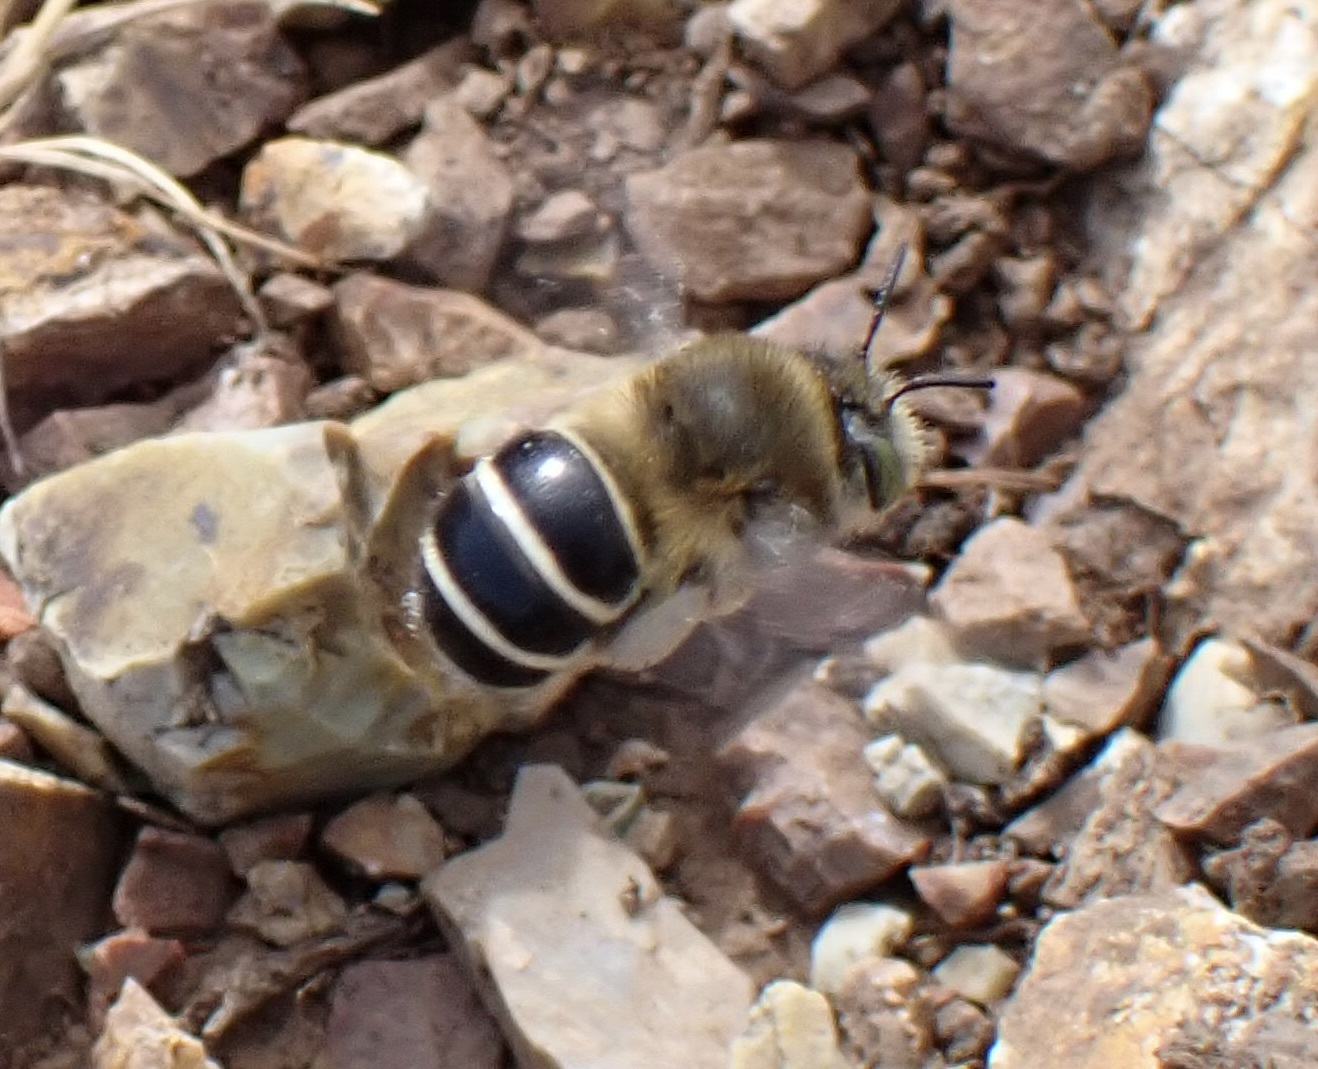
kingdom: Animalia
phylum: Arthropoda
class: Insecta
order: Hymenoptera
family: Apidae
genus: Anthophora
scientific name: Anthophora californica
